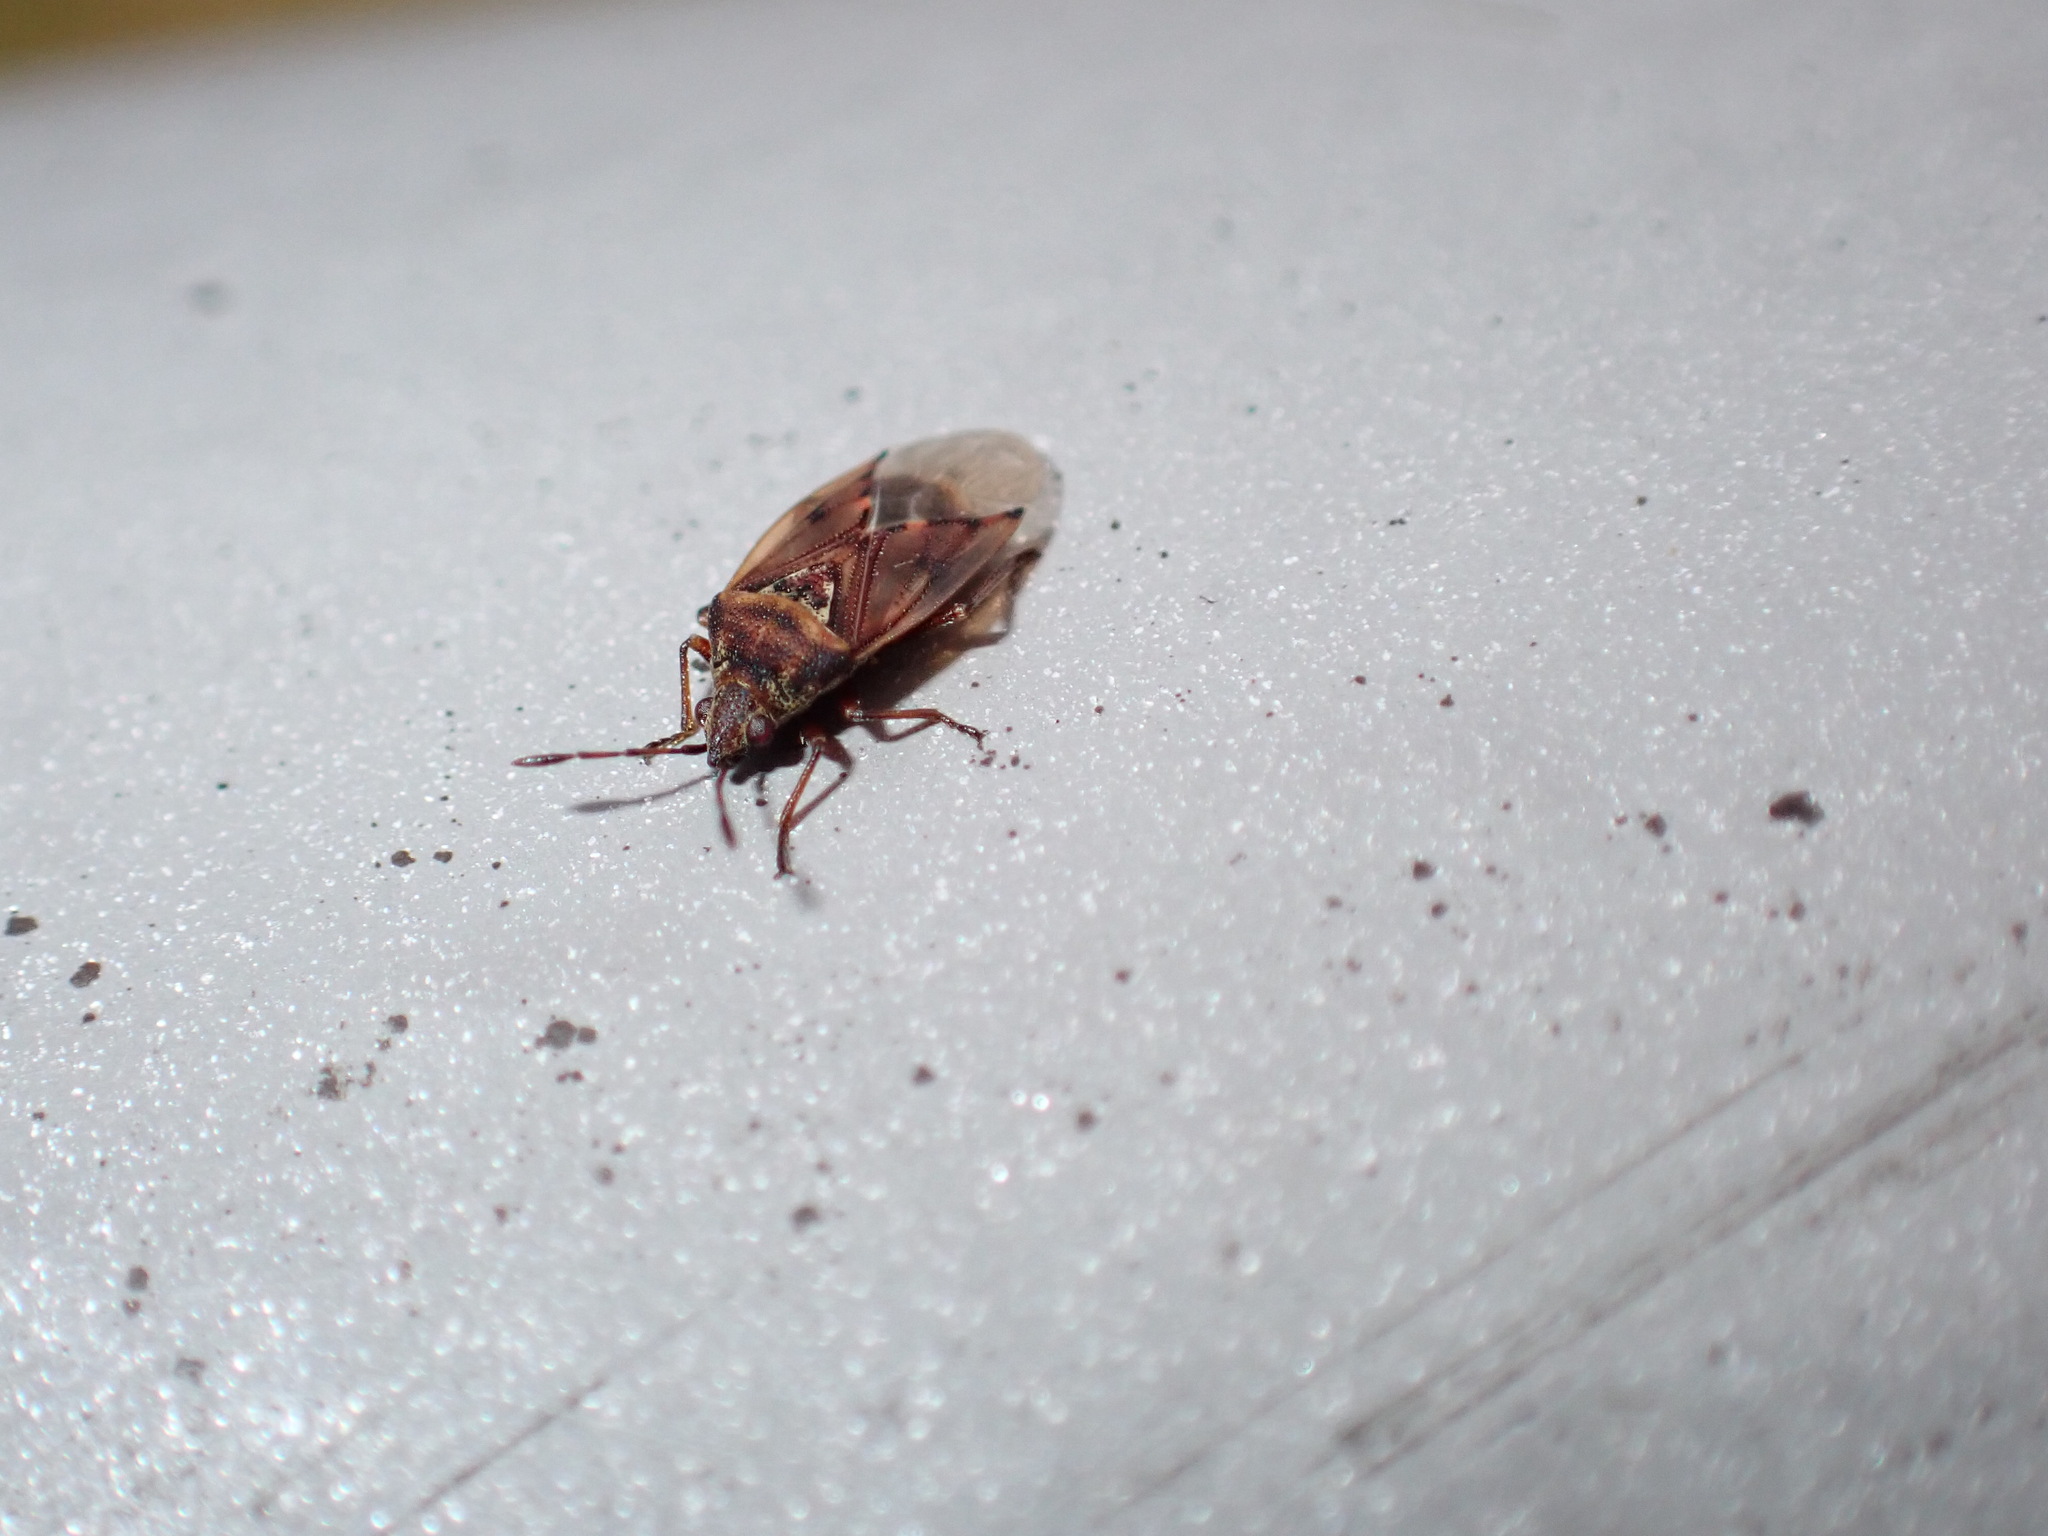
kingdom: Animalia
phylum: Arthropoda
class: Insecta
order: Hemiptera
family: Lygaeidae
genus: Kleidocerys
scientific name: Kleidocerys resedae
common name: Birch catkin bug
